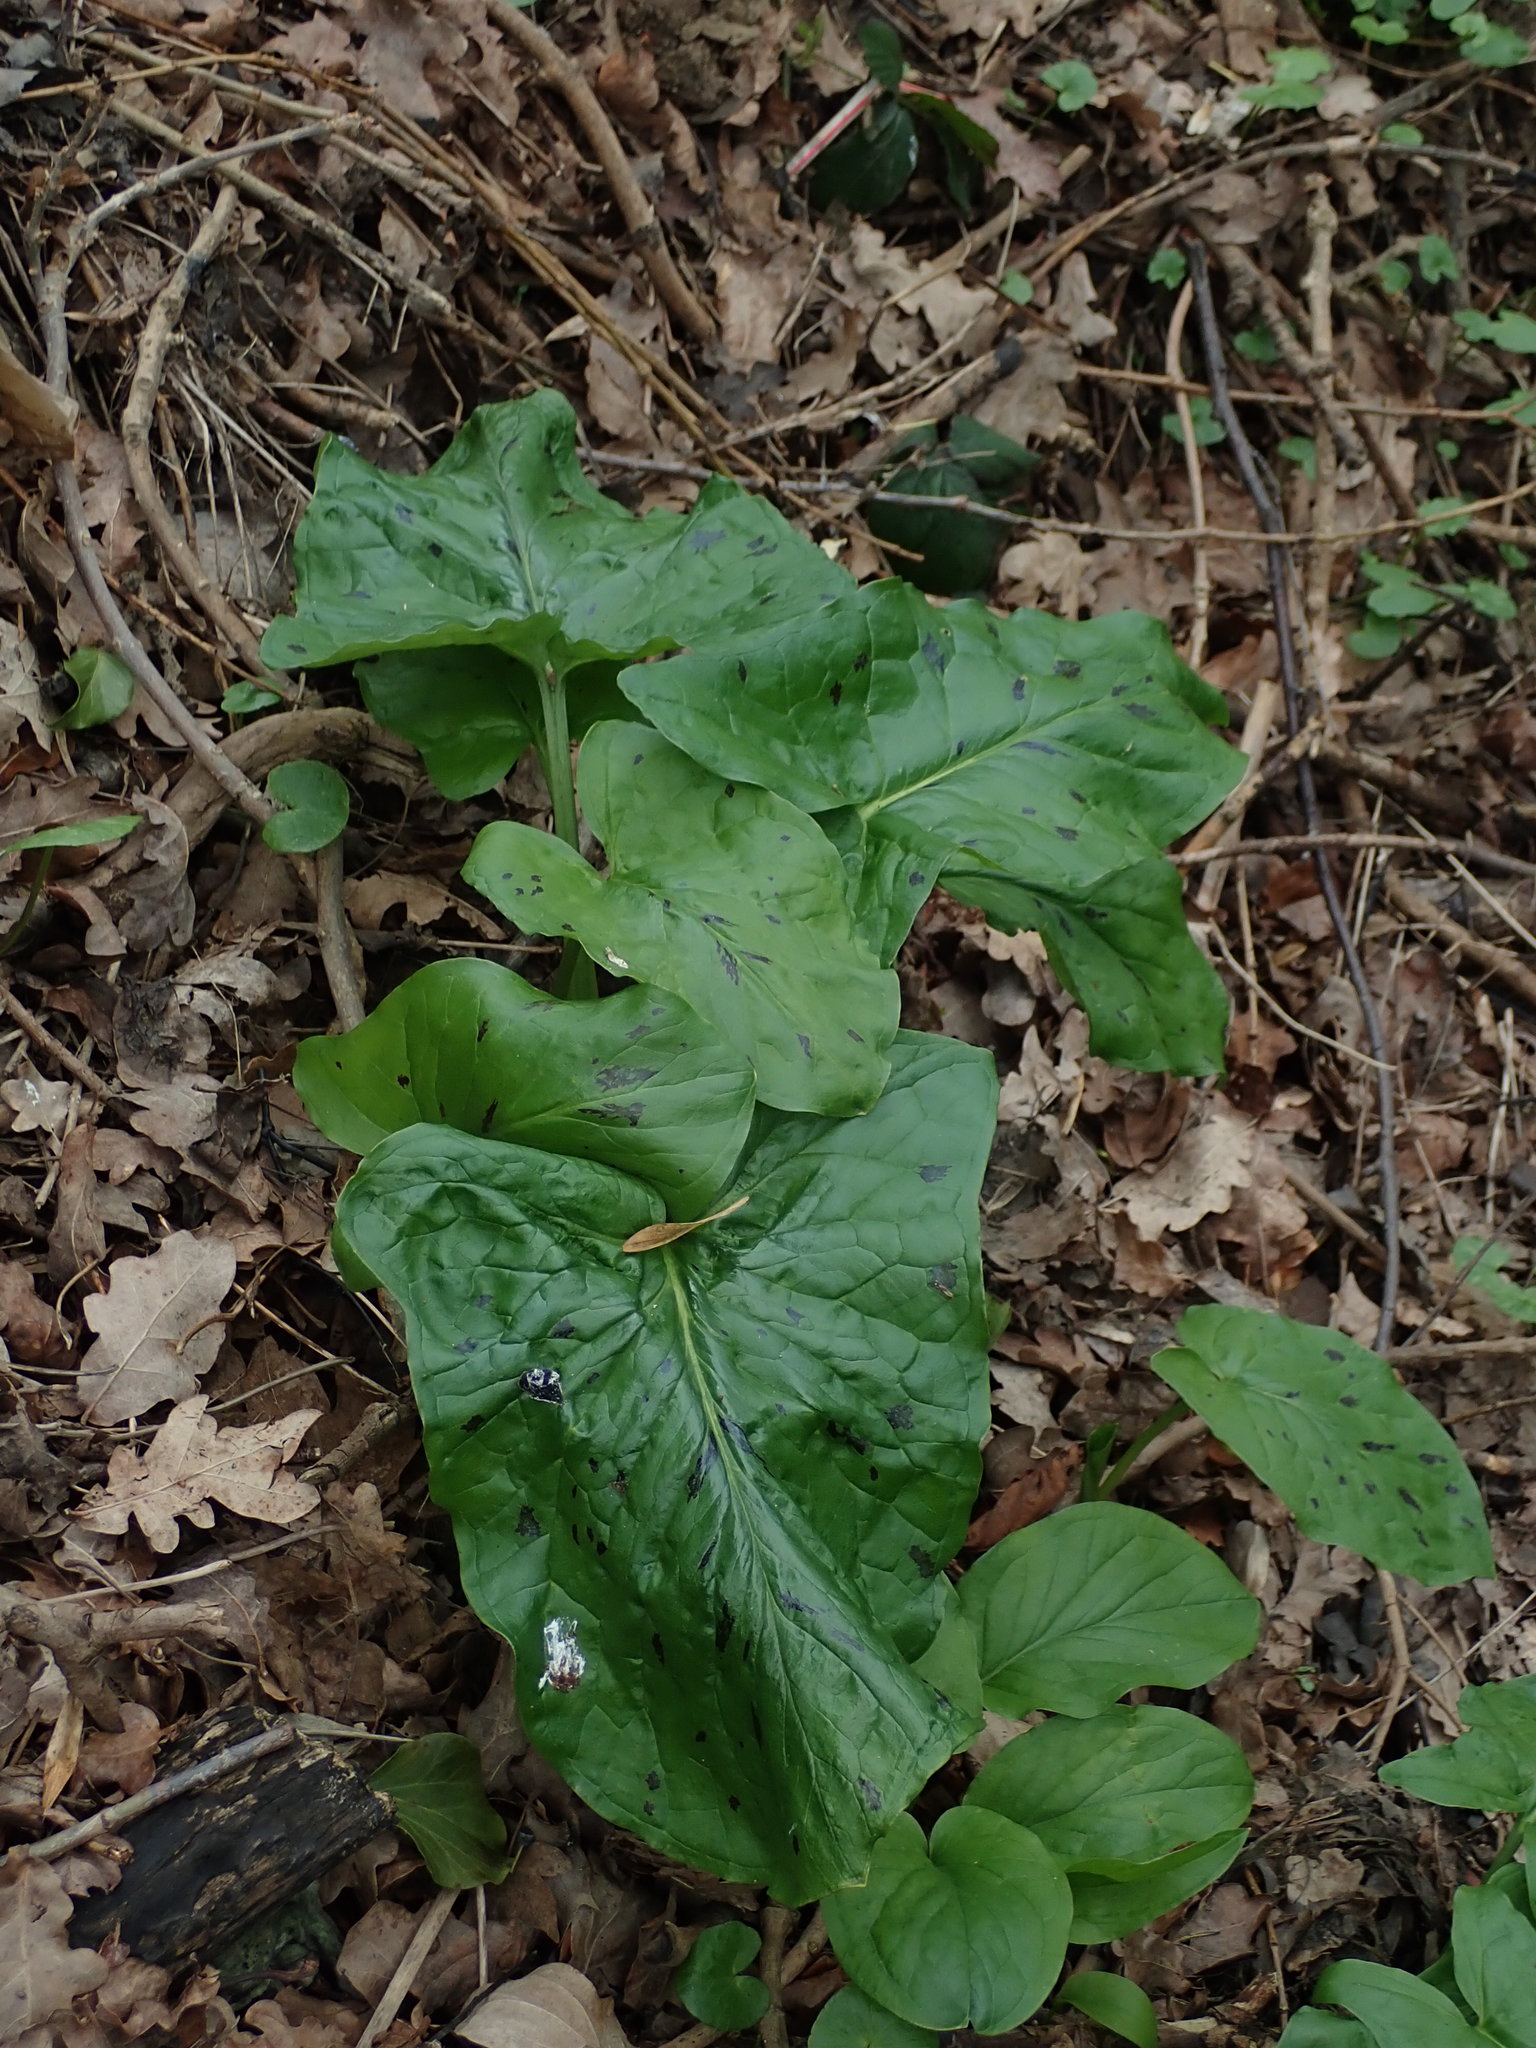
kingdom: Plantae
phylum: Tracheophyta
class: Liliopsida
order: Alismatales
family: Araceae
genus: Arum
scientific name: Arum maculatum
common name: Lords-and-ladies
